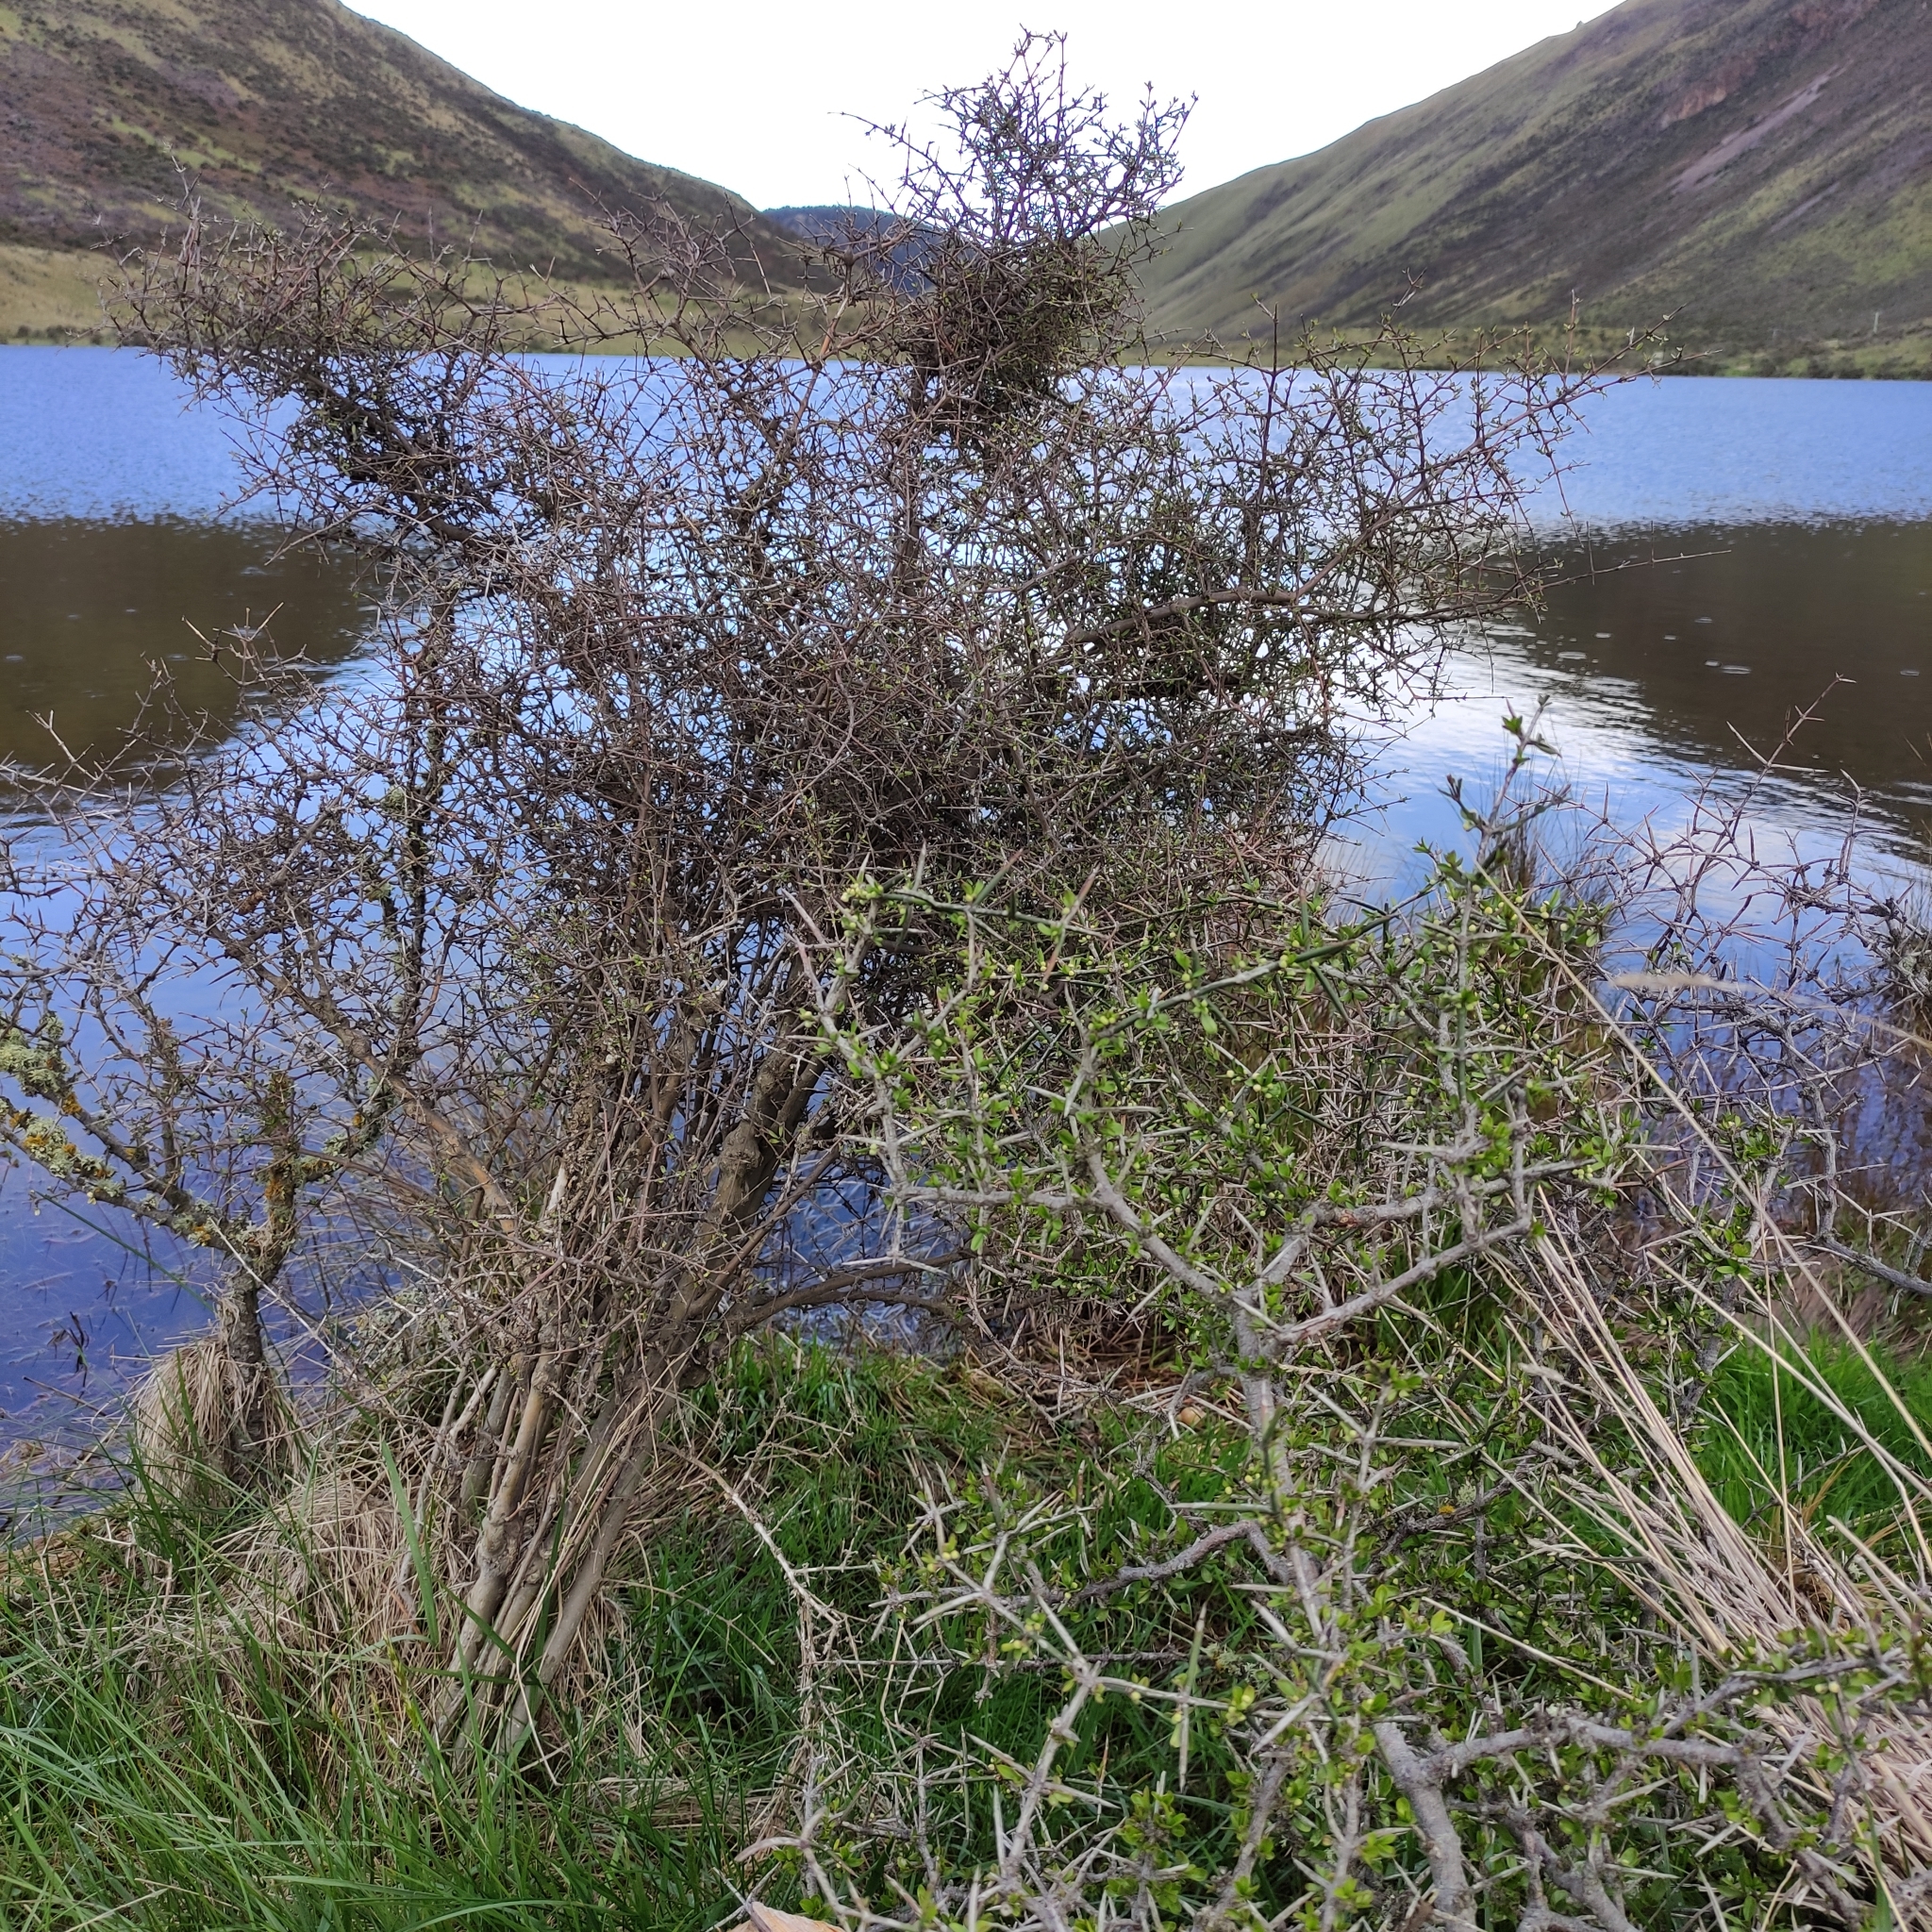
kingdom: Plantae
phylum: Tracheophyta
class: Magnoliopsida
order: Rosales
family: Rhamnaceae
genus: Discaria
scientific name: Discaria toumatou
